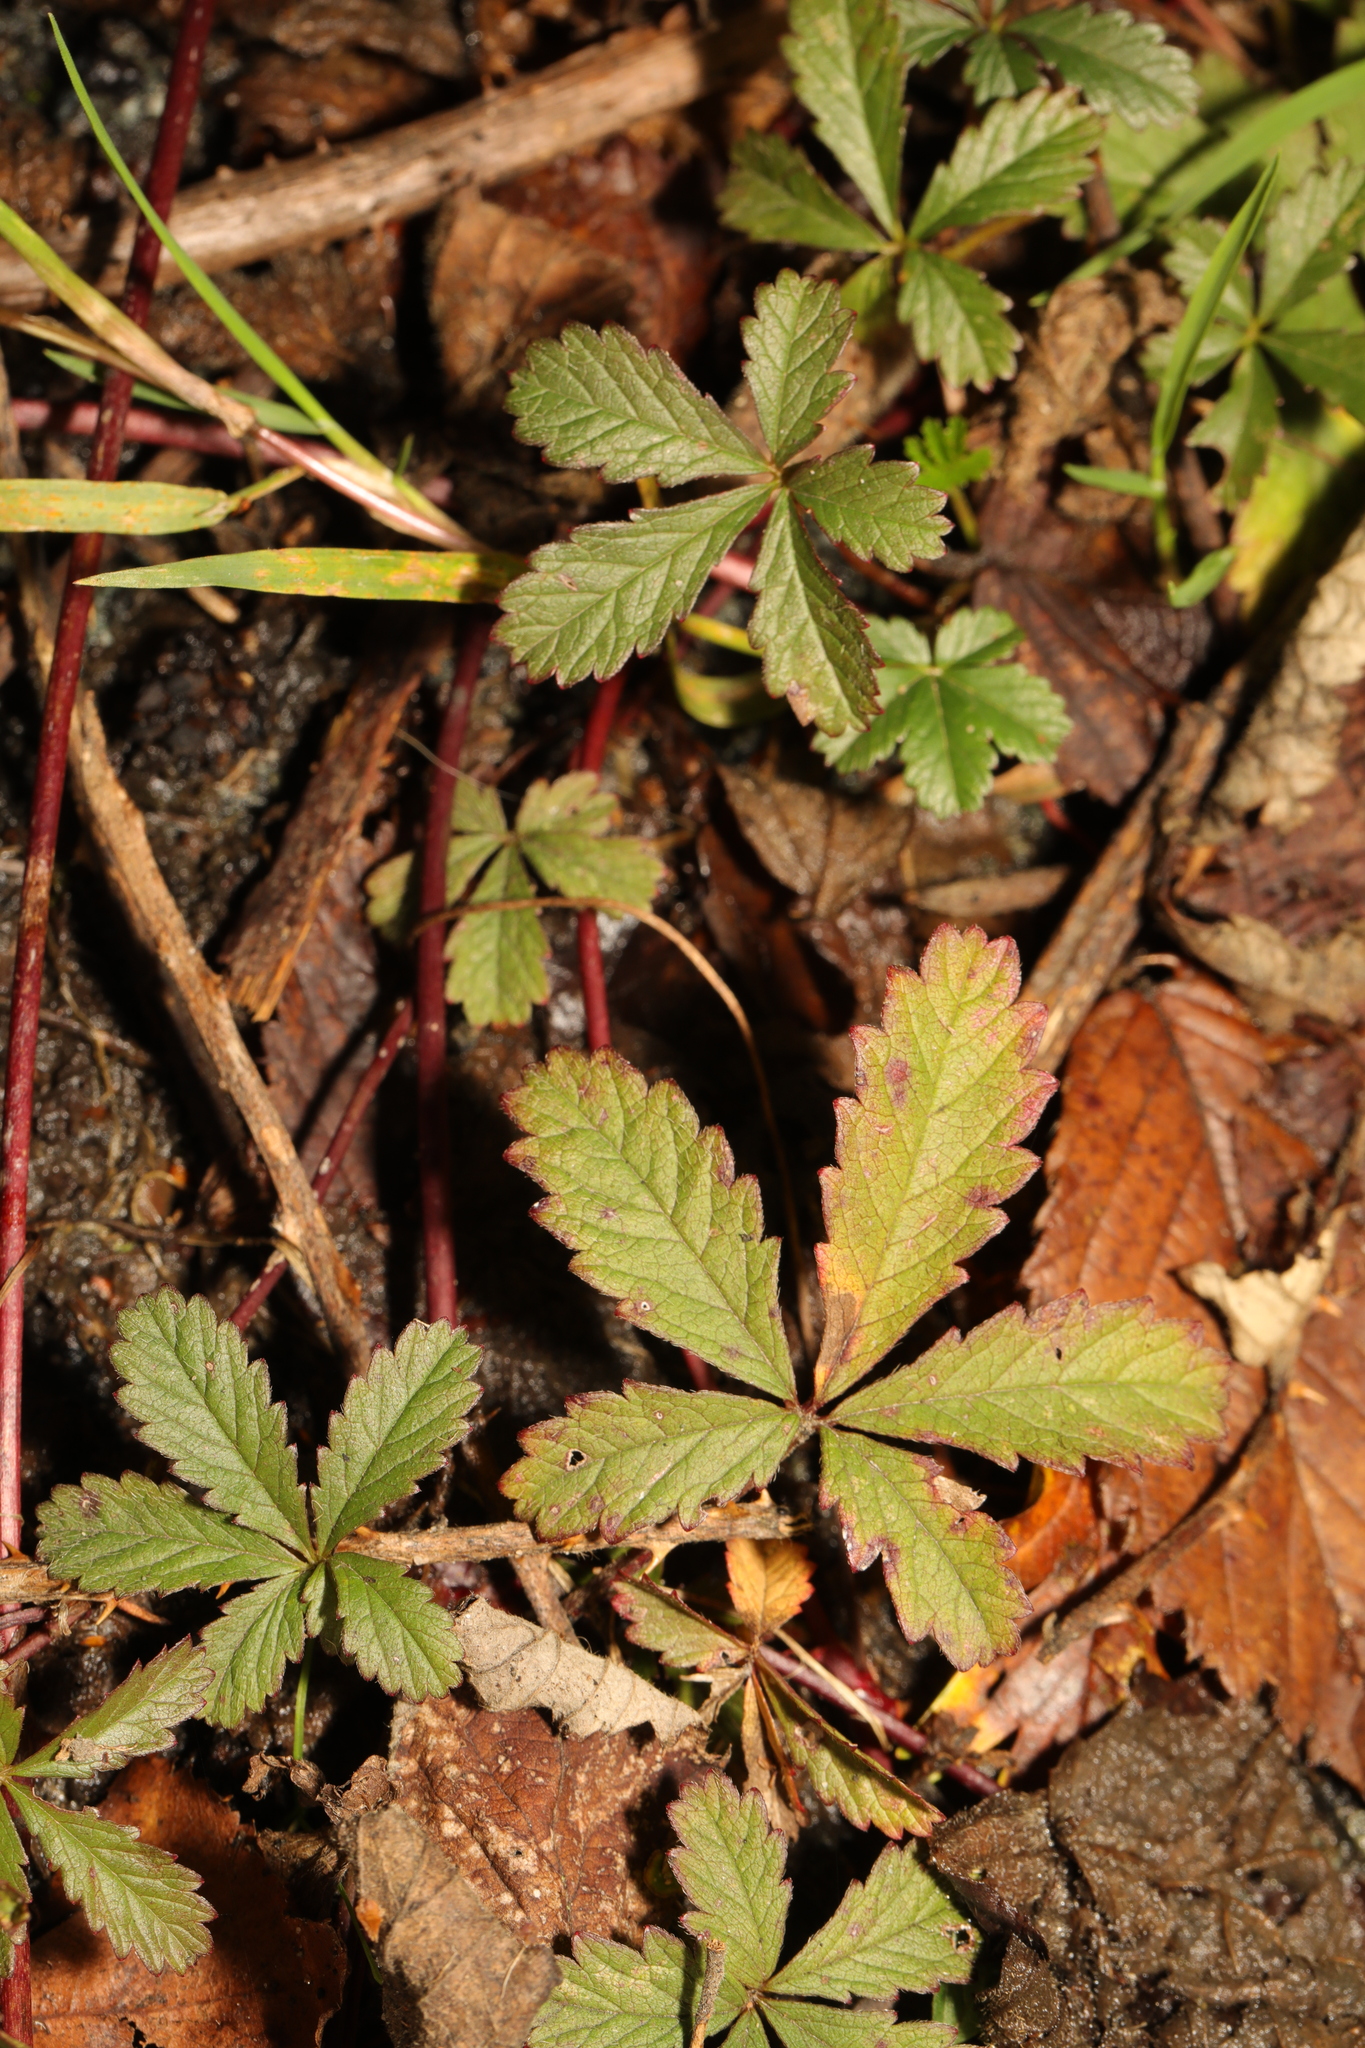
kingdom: Plantae
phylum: Tracheophyta
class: Magnoliopsida
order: Rosales
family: Rosaceae
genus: Potentilla
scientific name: Potentilla reptans
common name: Creeping cinquefoil
